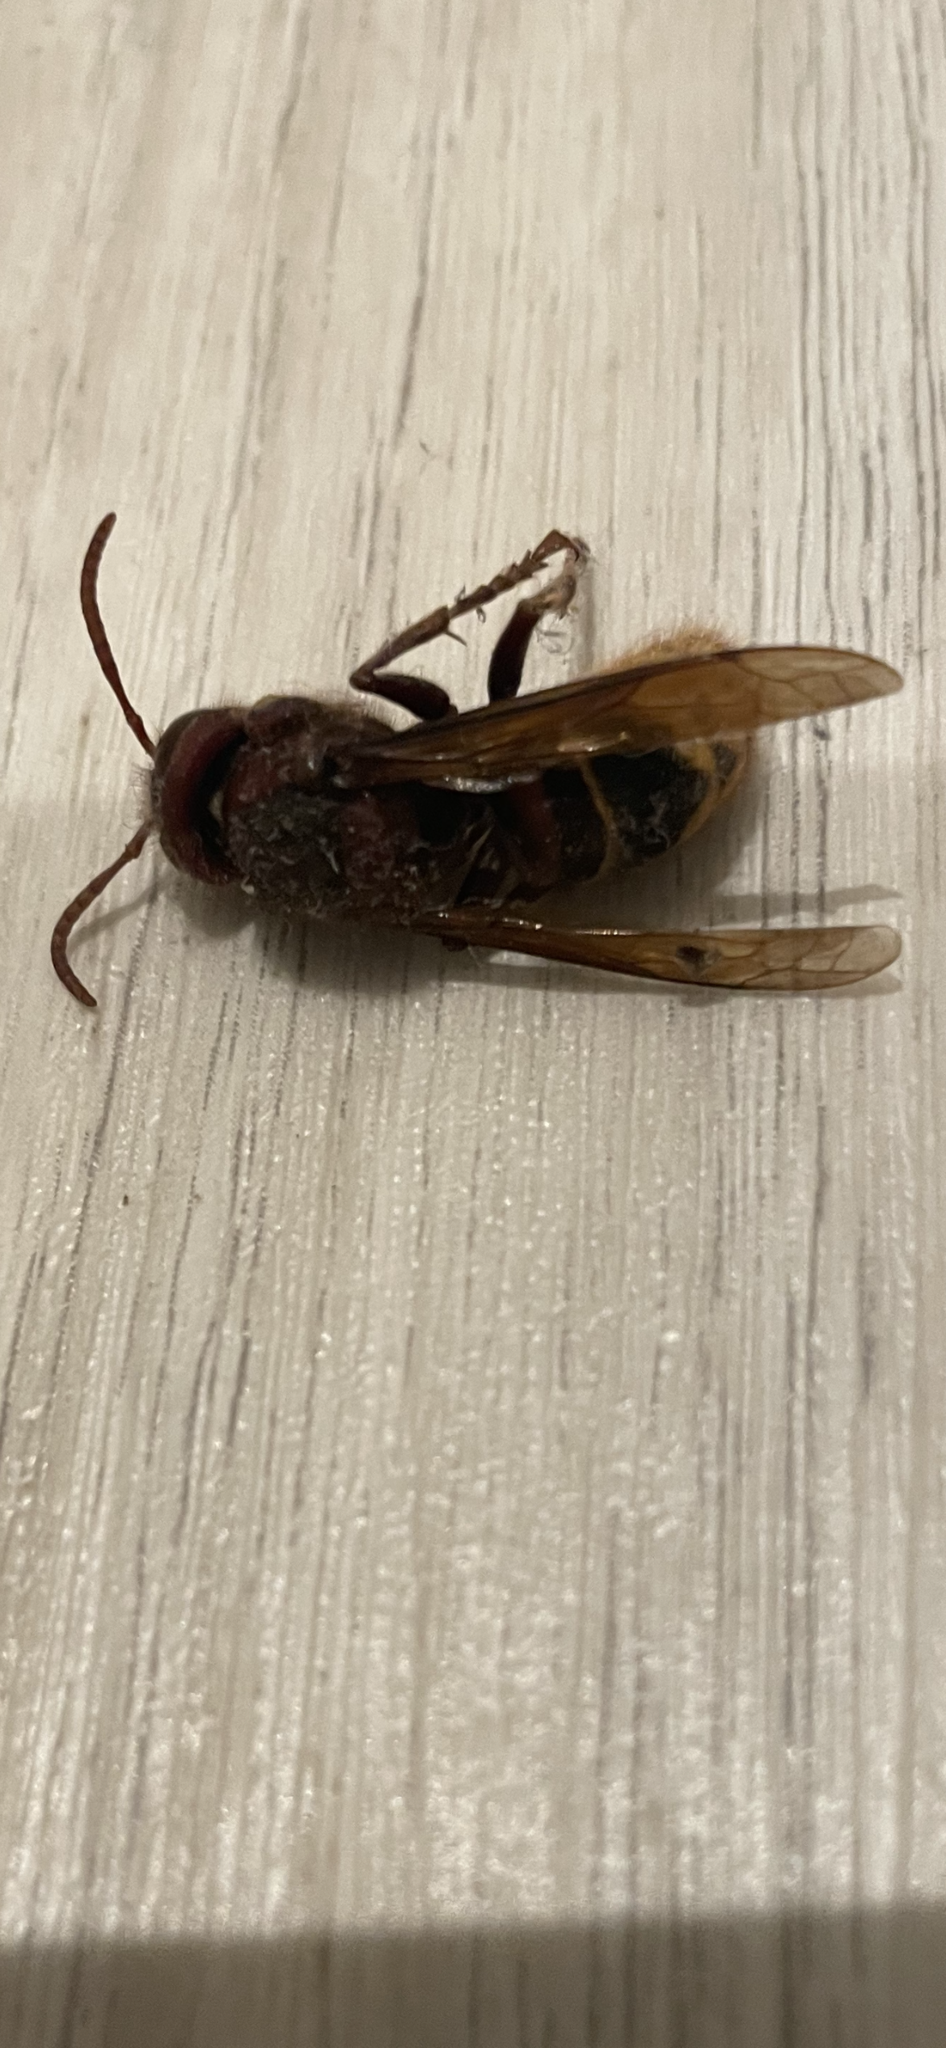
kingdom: Animalia
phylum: Arthropoda
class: Insecta
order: Hymenoptera
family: Vespidae
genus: Vespa
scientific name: Vespa crabro
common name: Hornet
